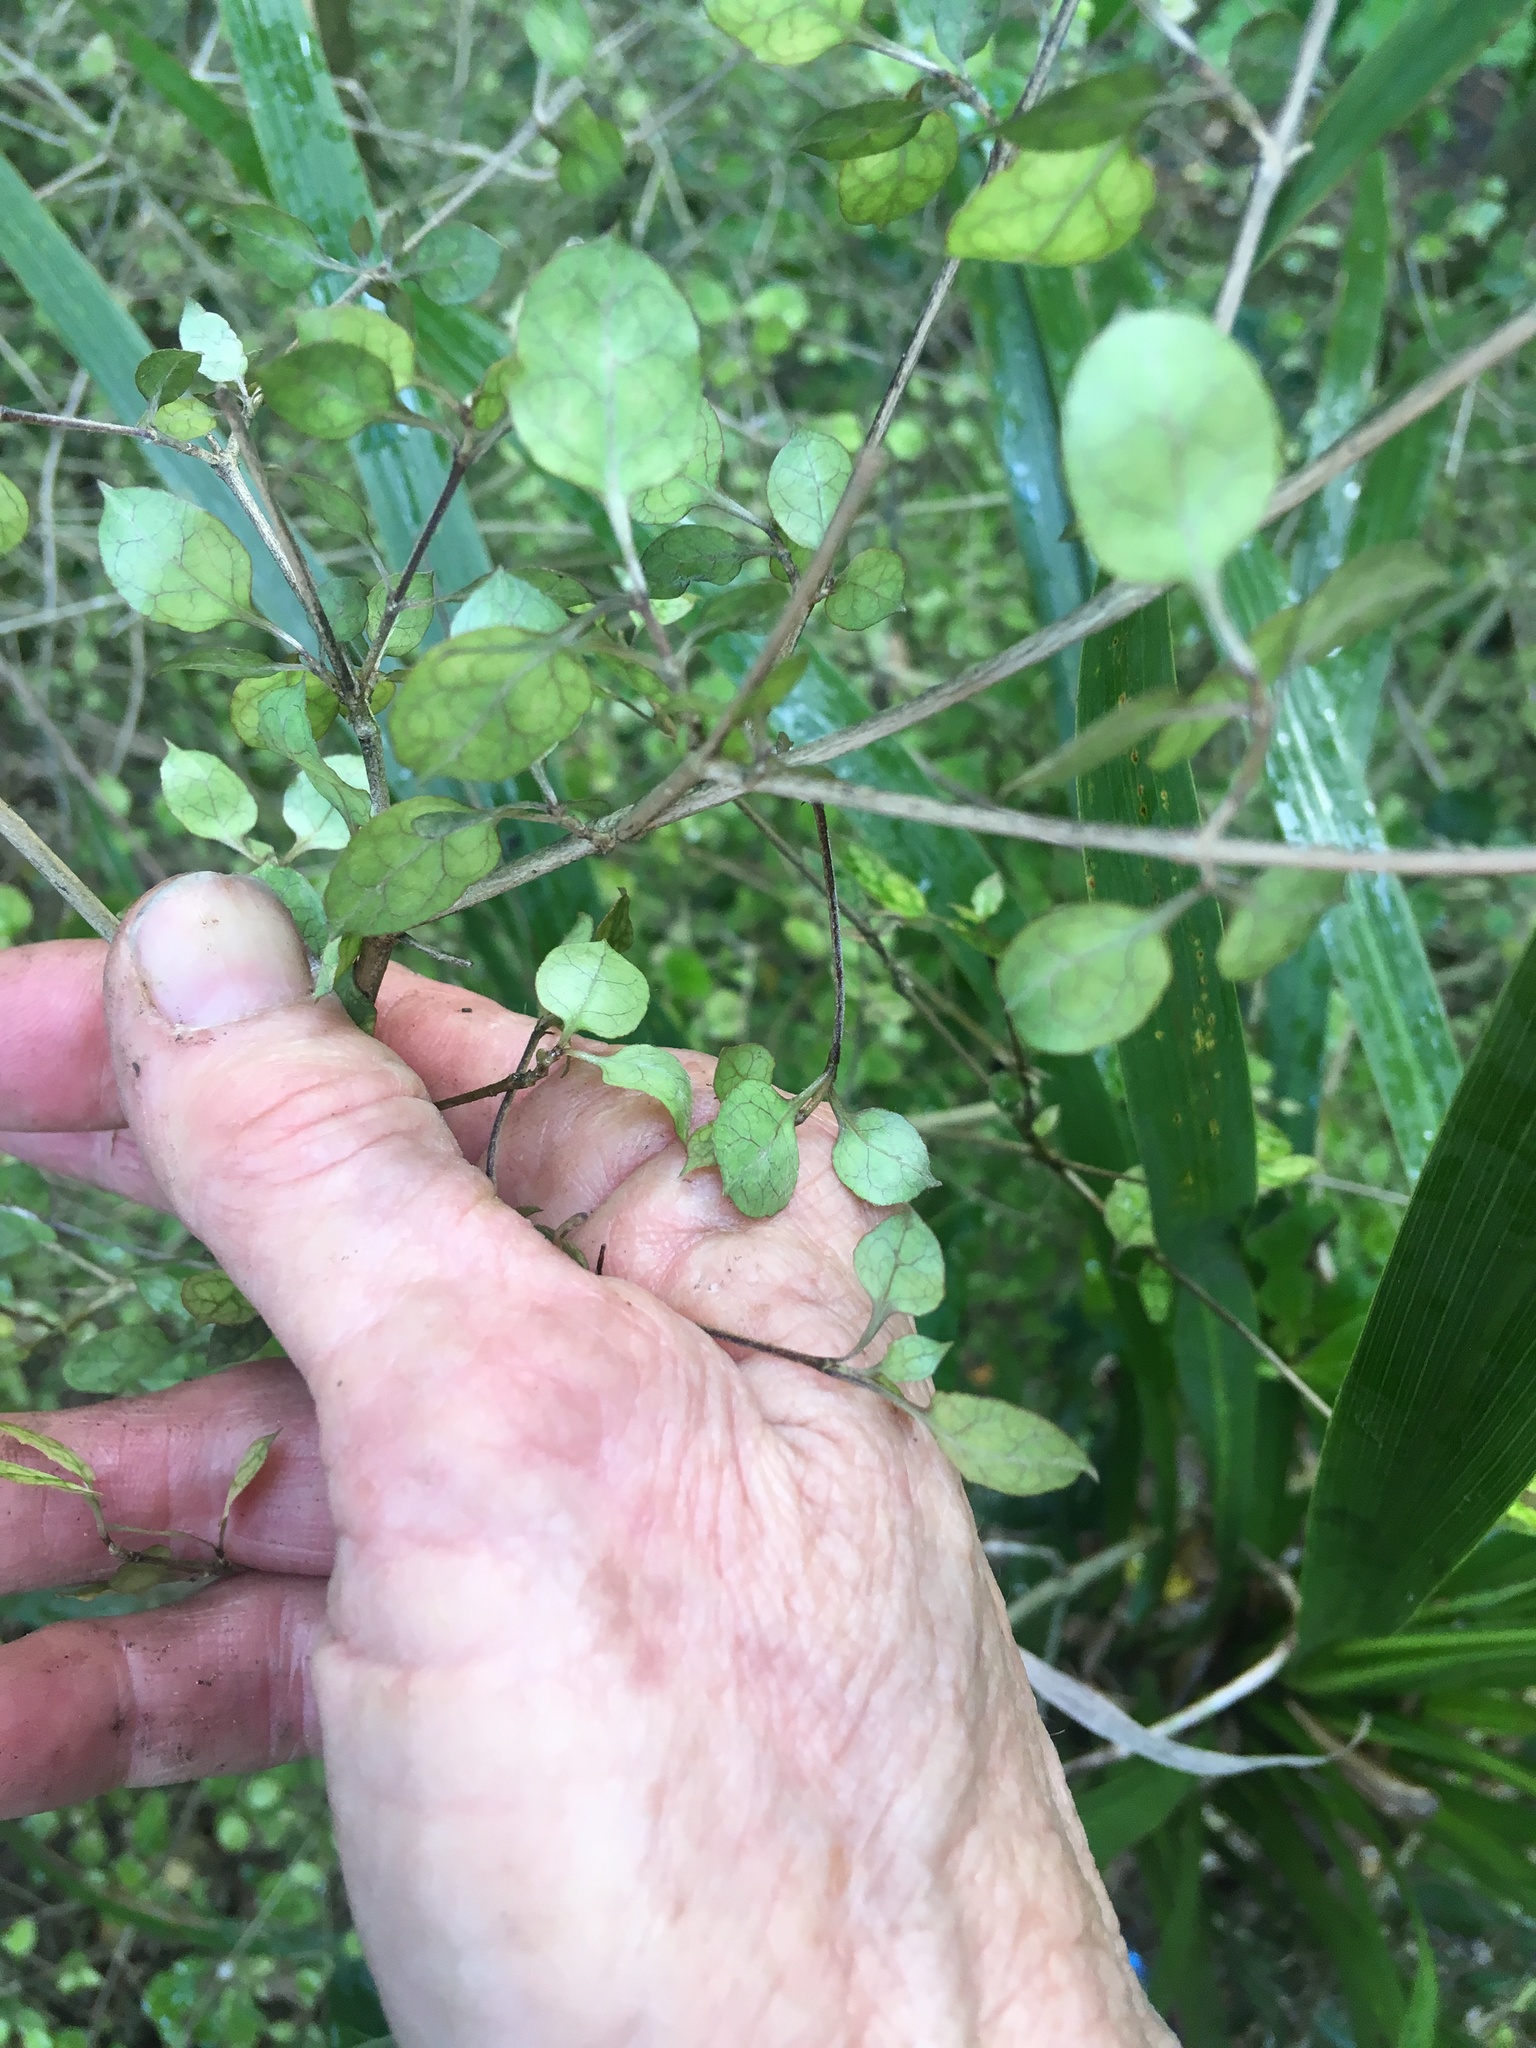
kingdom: Plantae
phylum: Tracheophyta
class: Magnoliopsida
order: Gentianales
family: Rubiaceae
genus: Coprosma
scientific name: Coprosma areolata
